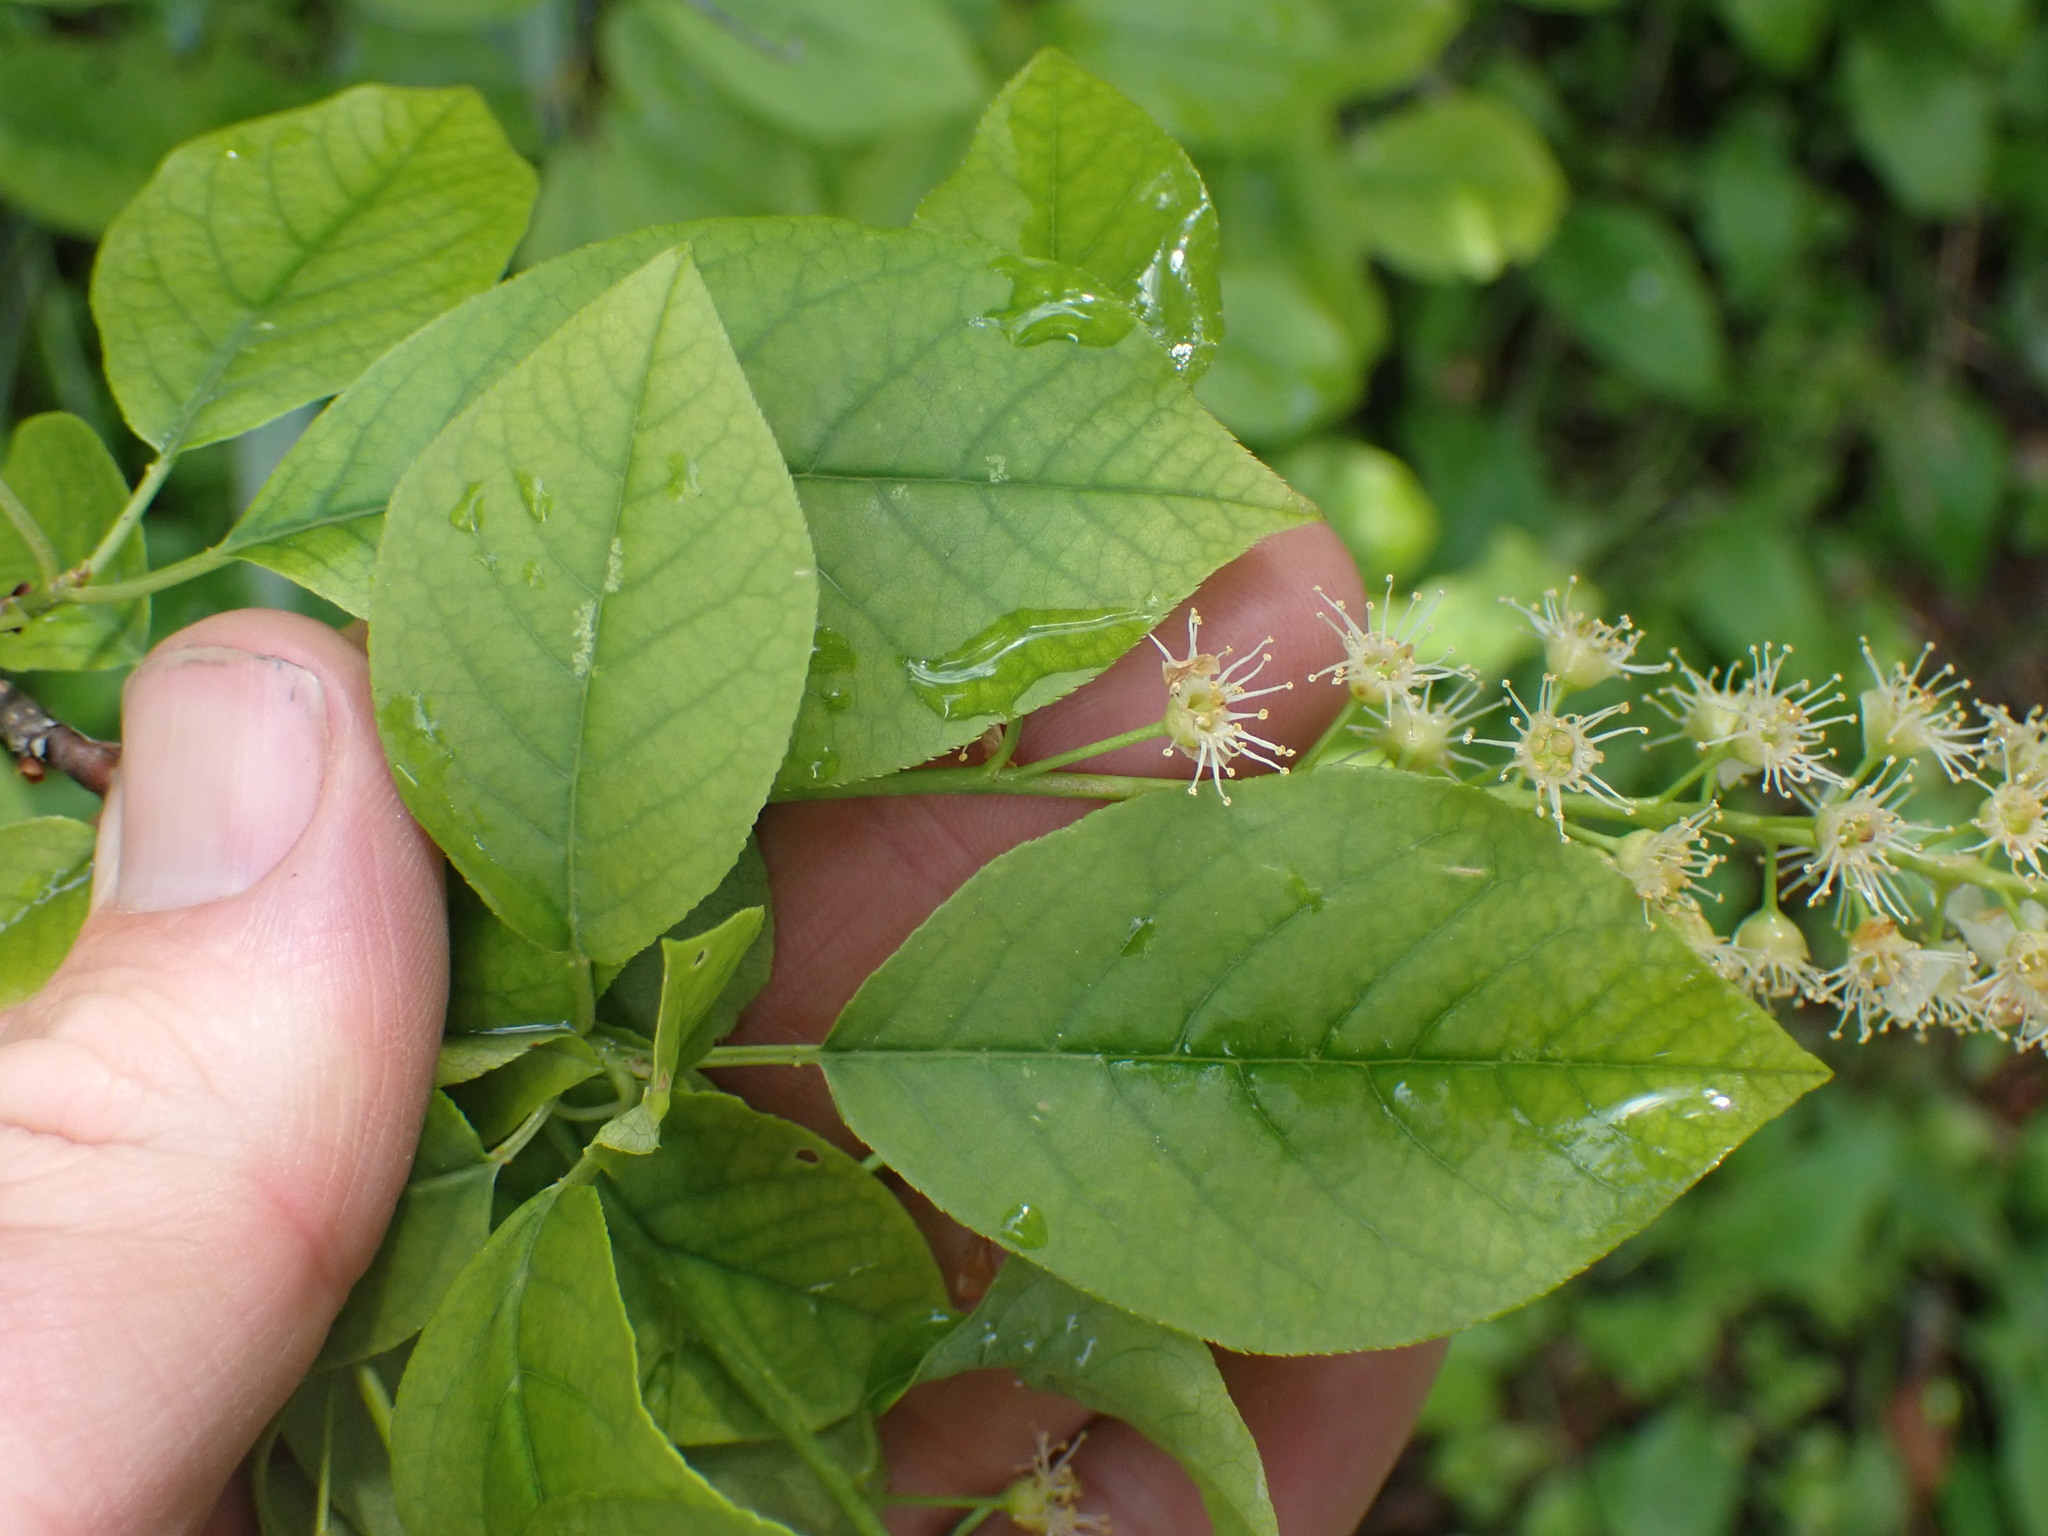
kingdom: Plantae
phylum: Tracheophyta
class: Magnoliopsida
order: Rosales
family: Rosaceae
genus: Prunus
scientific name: Prunus virginiana
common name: Chokecherry
